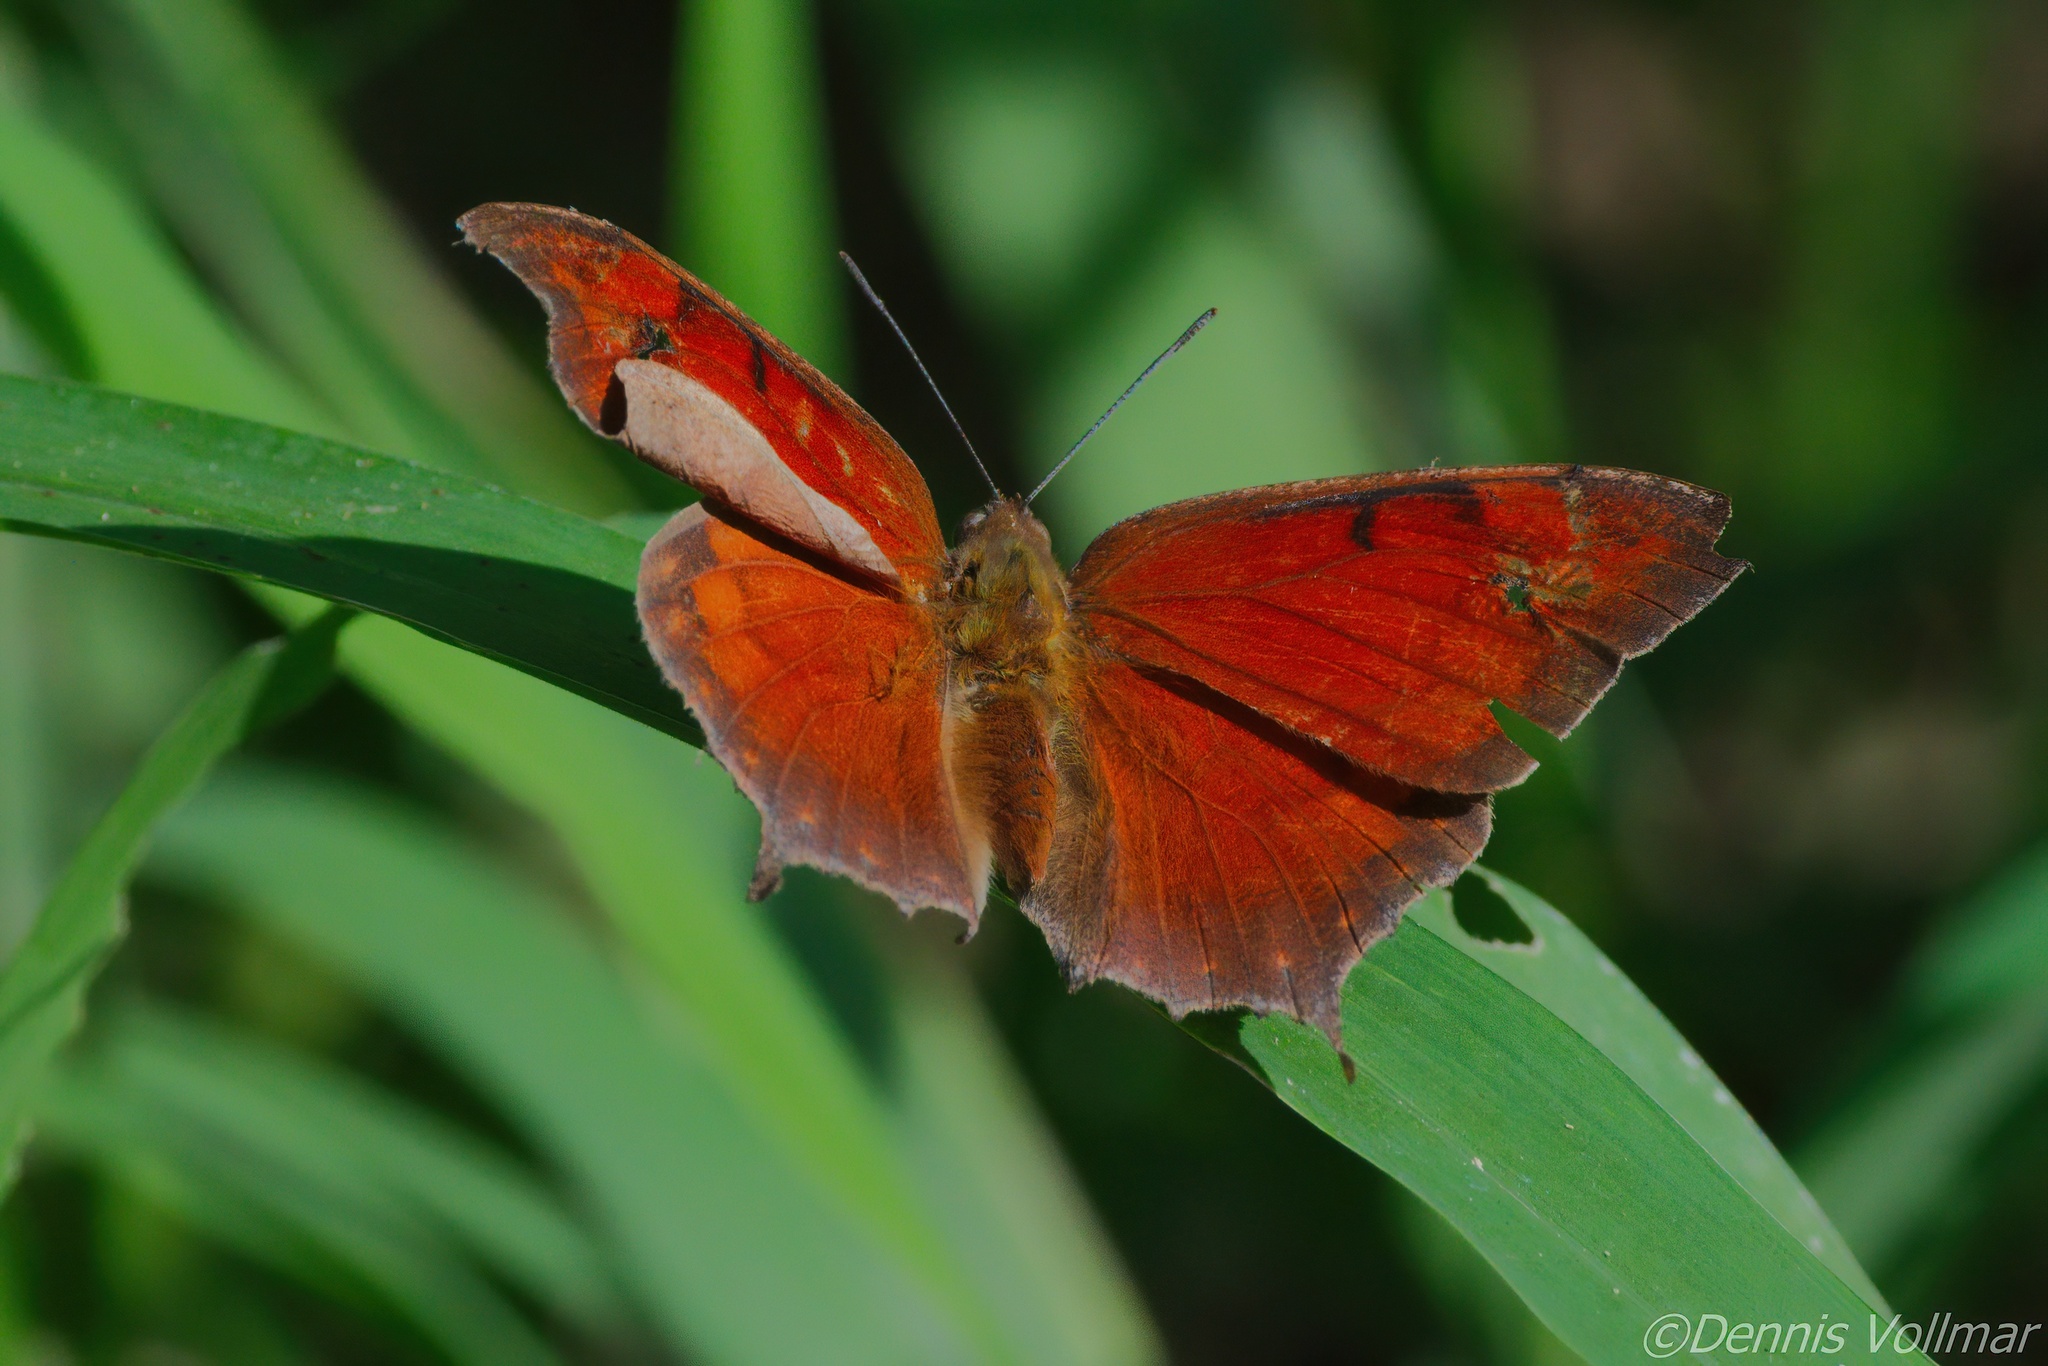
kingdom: Animalia
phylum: Arthropoda
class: Insecta
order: Lepidoptera
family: Nymphalidae
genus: Anaea
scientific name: Anaea aidea
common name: Tropical leafwing
